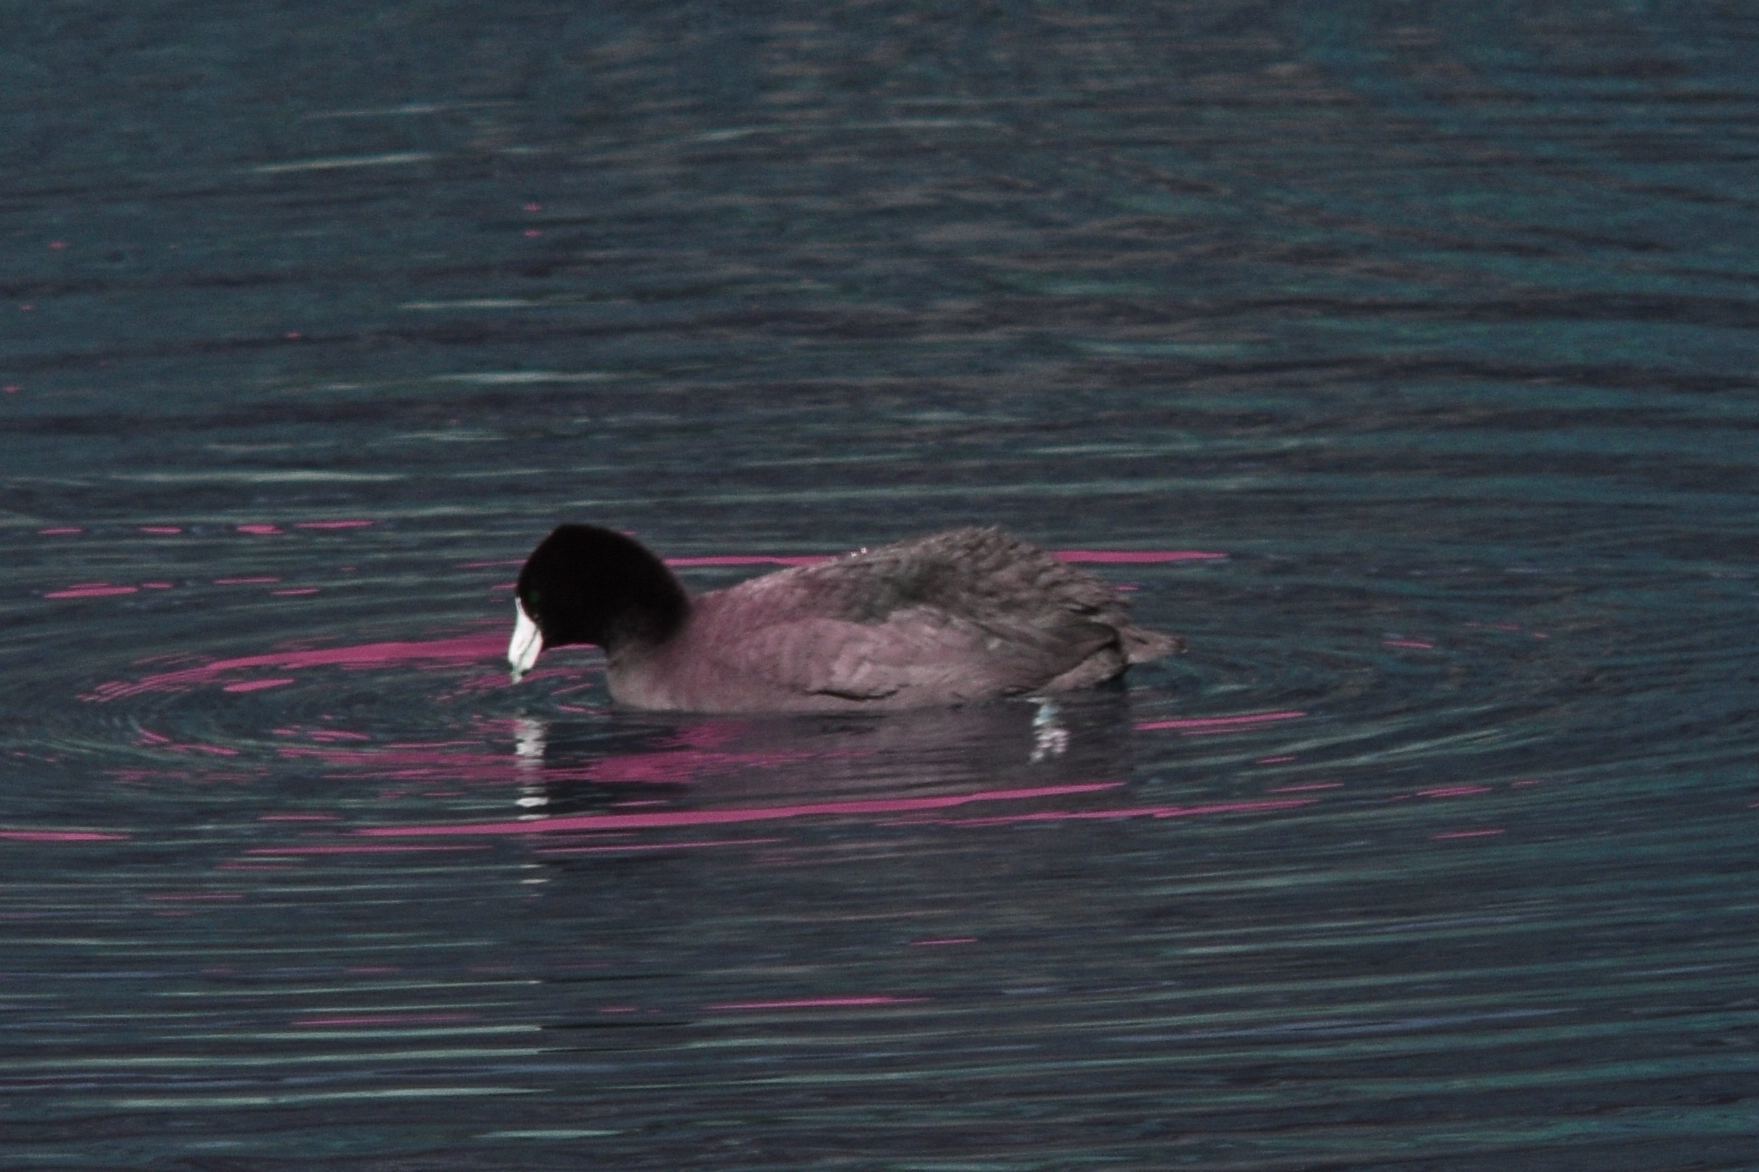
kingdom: Animalia
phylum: Chordata
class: Aves
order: Gruiformes
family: Rallidae
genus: Fulica
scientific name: Fulica americana
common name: American coot
